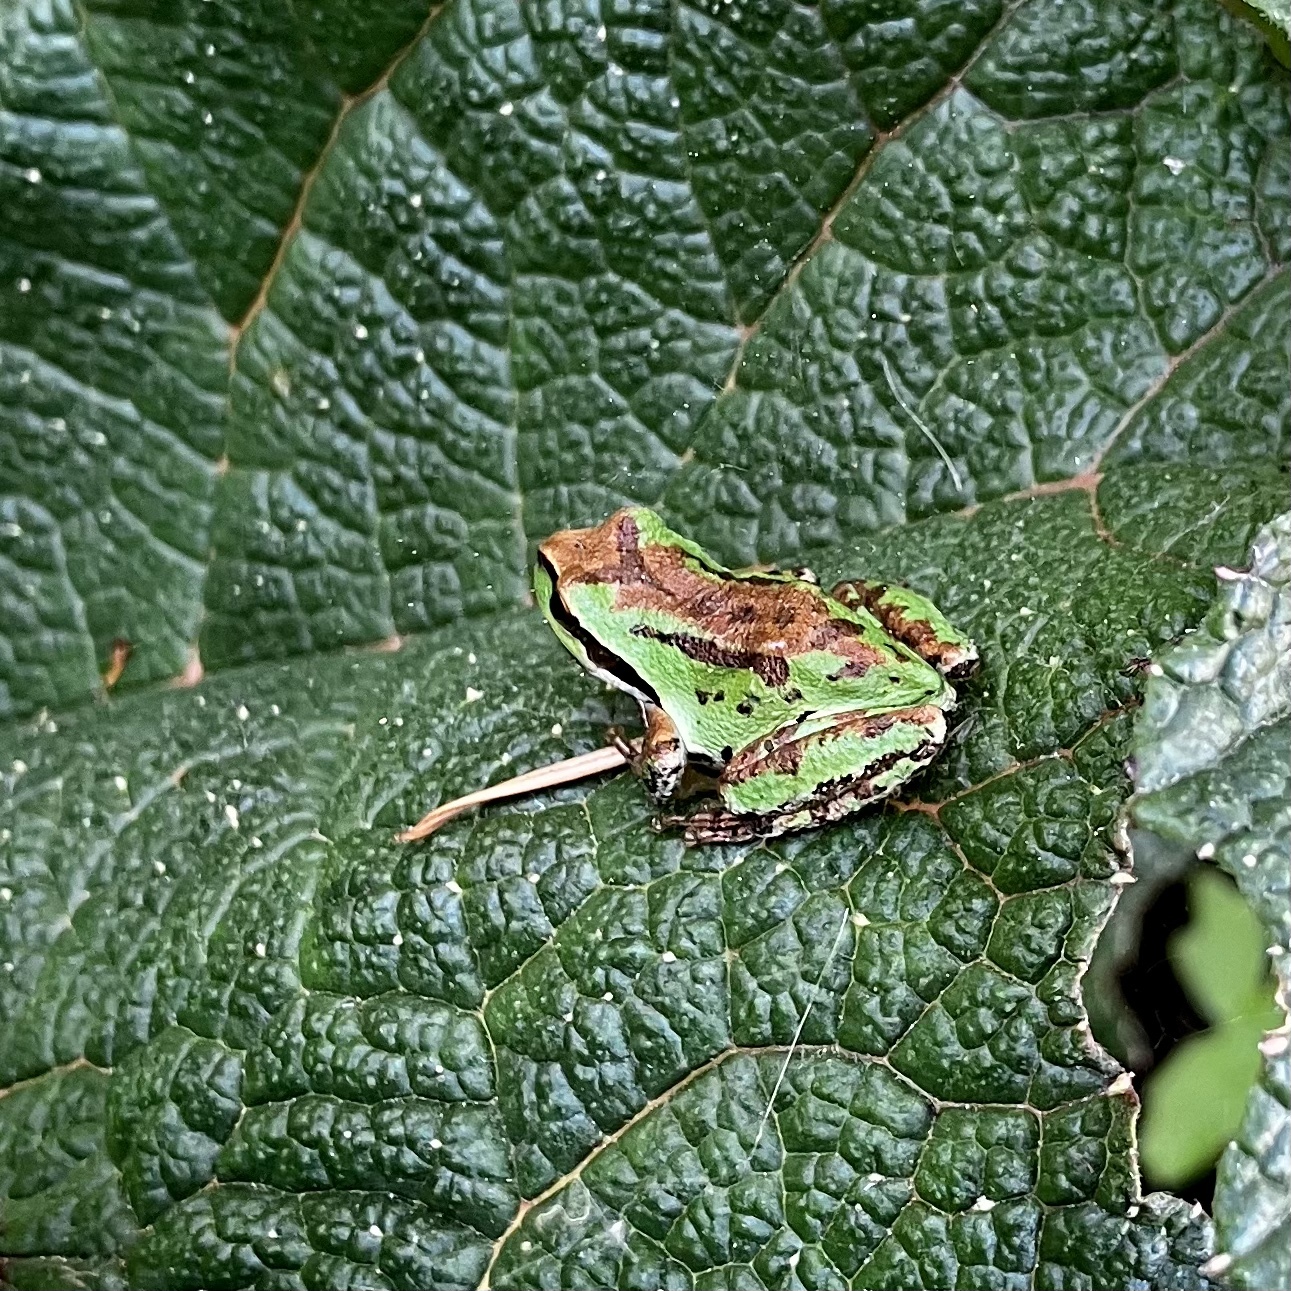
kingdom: Animalia
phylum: Chordata
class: Amphibia
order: Anura
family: Hylidae
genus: Pseudacris
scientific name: Pseudacris regilla
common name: Pacific chorus frog
